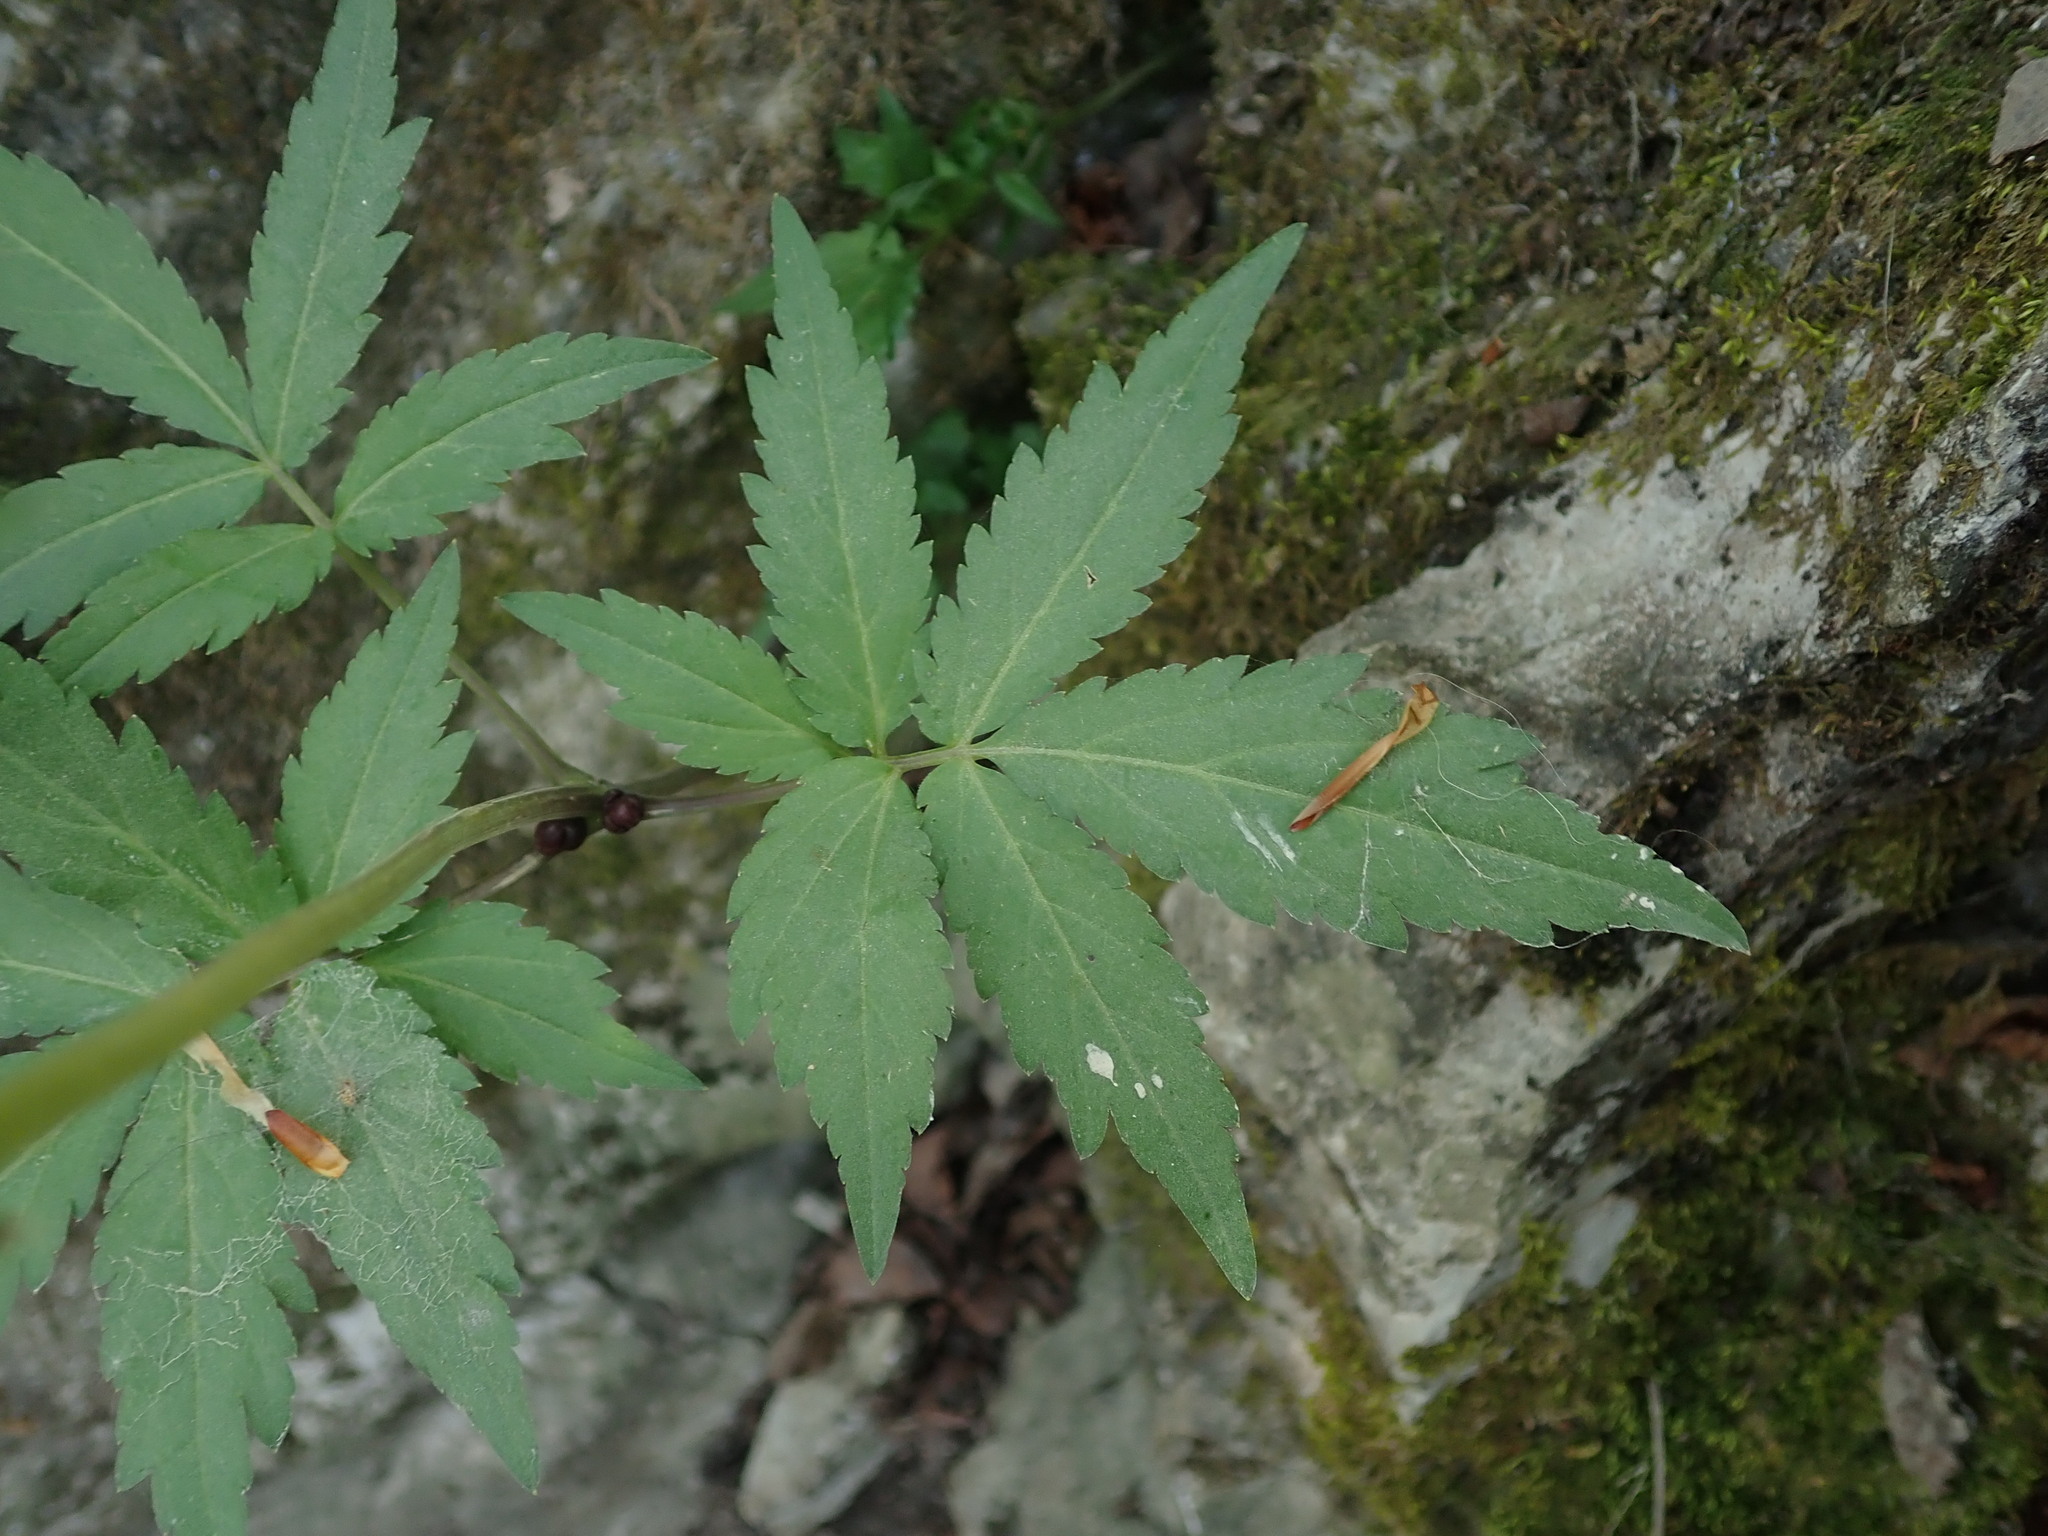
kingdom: Plantae
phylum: Tracheophyta
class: Magnoliopsida
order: Brassicales
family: Brassicaceae
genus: Cardamine
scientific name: Cardamine bulbifera
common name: Coralroot bittercress
